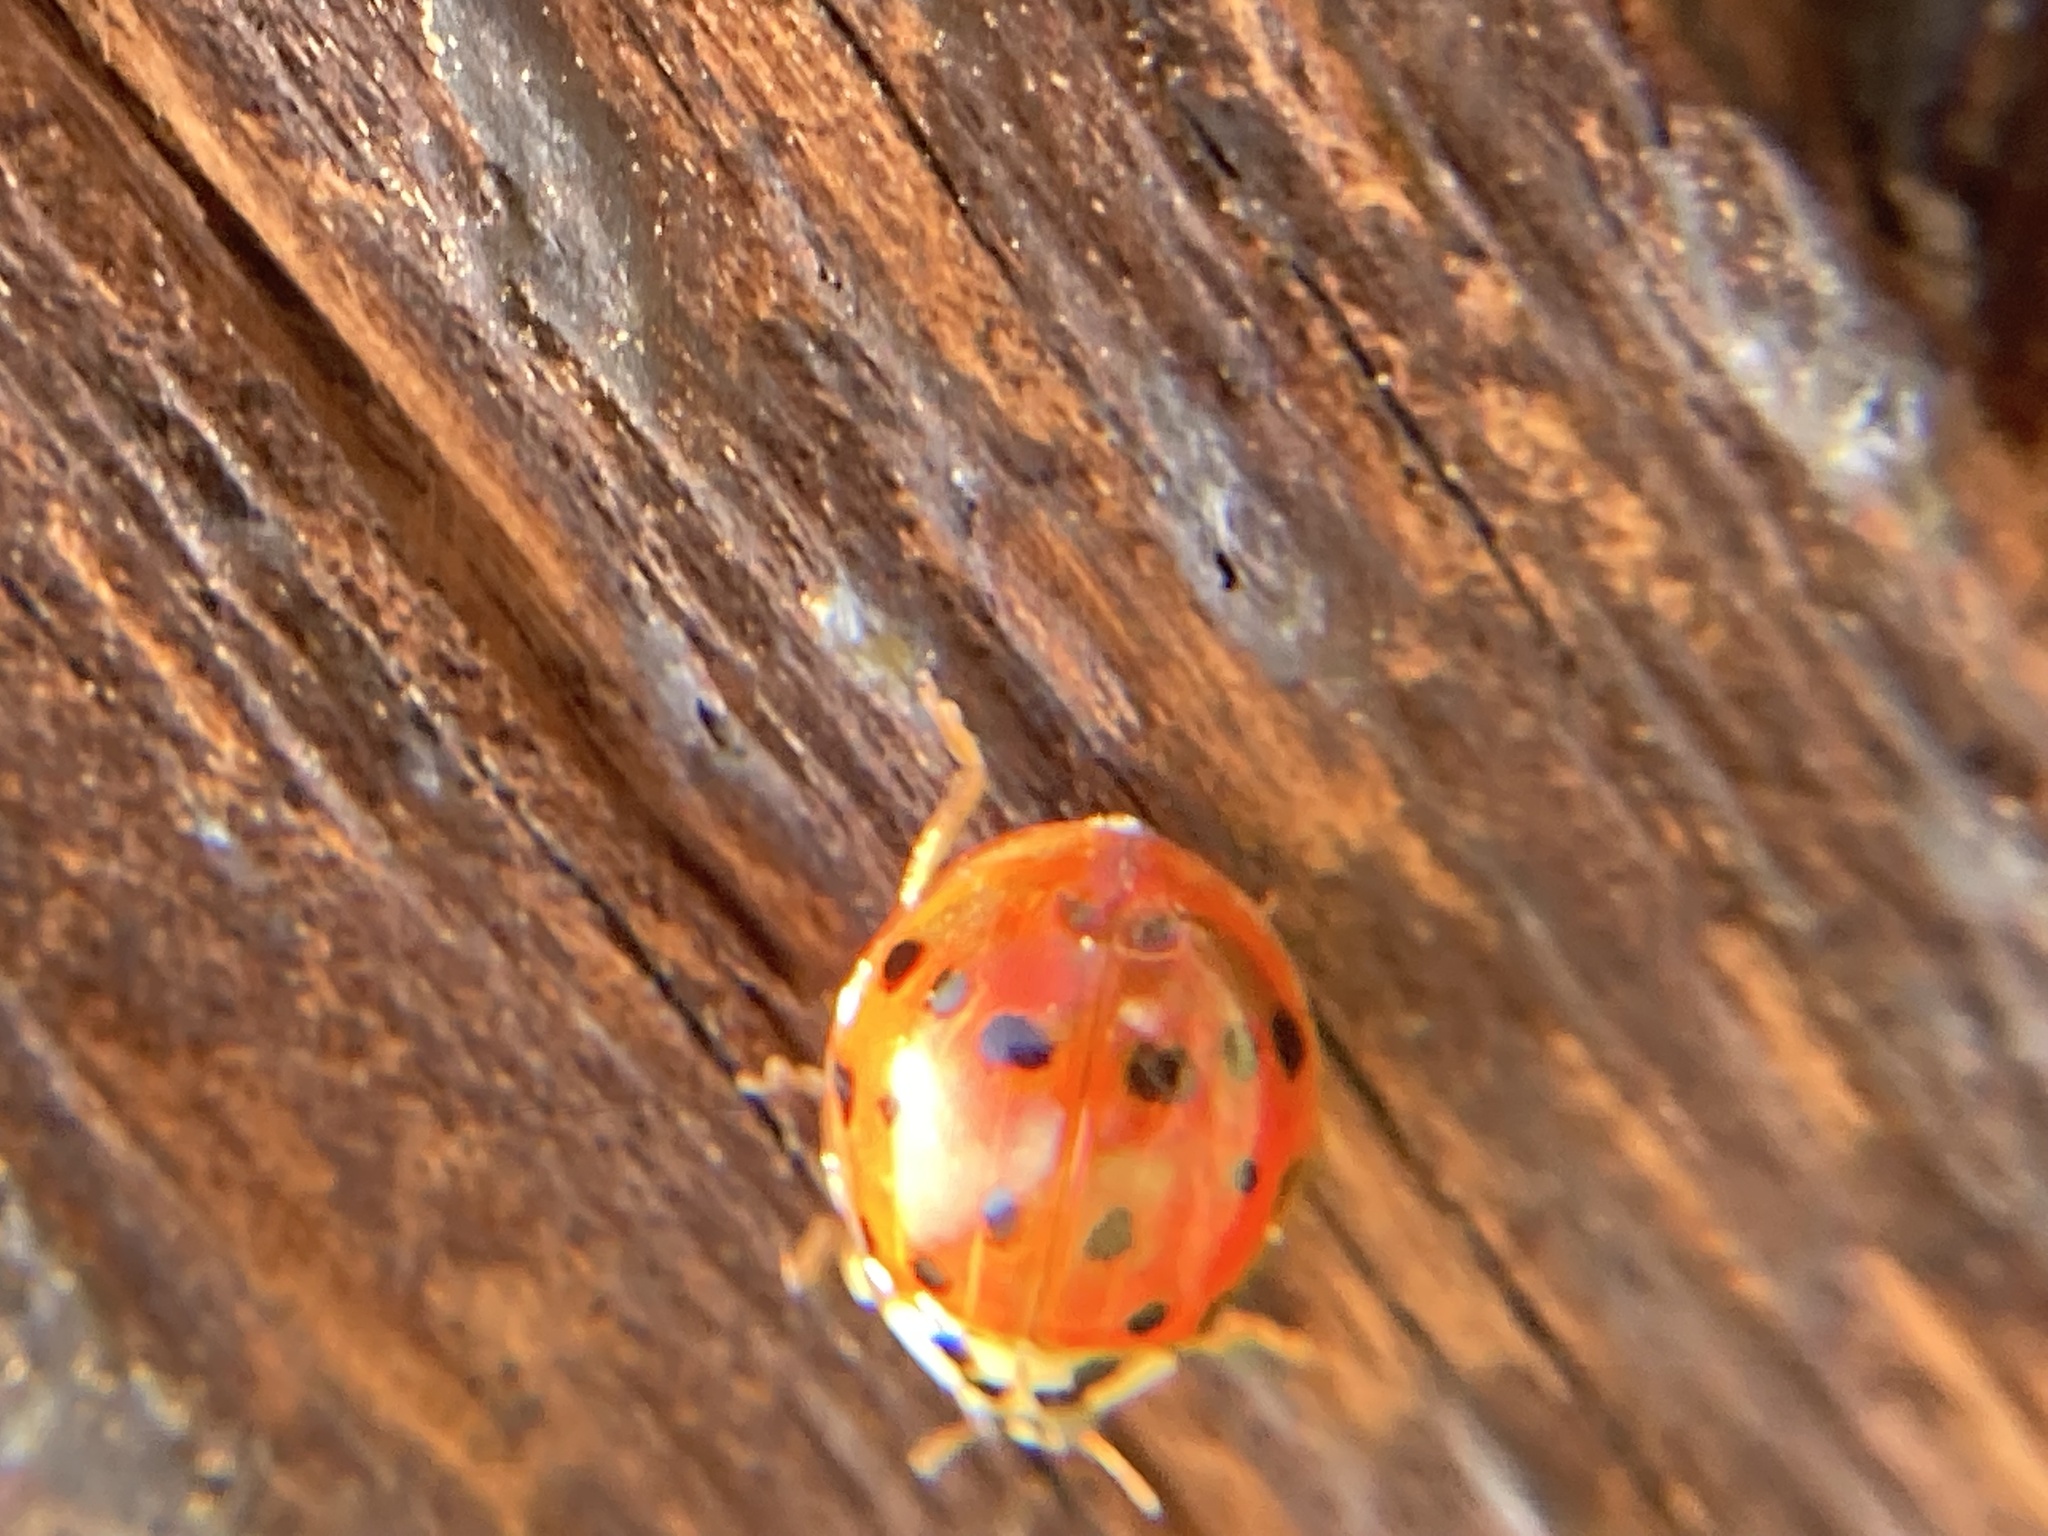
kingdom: Animalia
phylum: Arthropoda
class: Insecta
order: Coleoptera
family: Coccinellidae
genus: Harmonia
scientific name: Harmonia axyridis
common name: Harlequin ladybird
